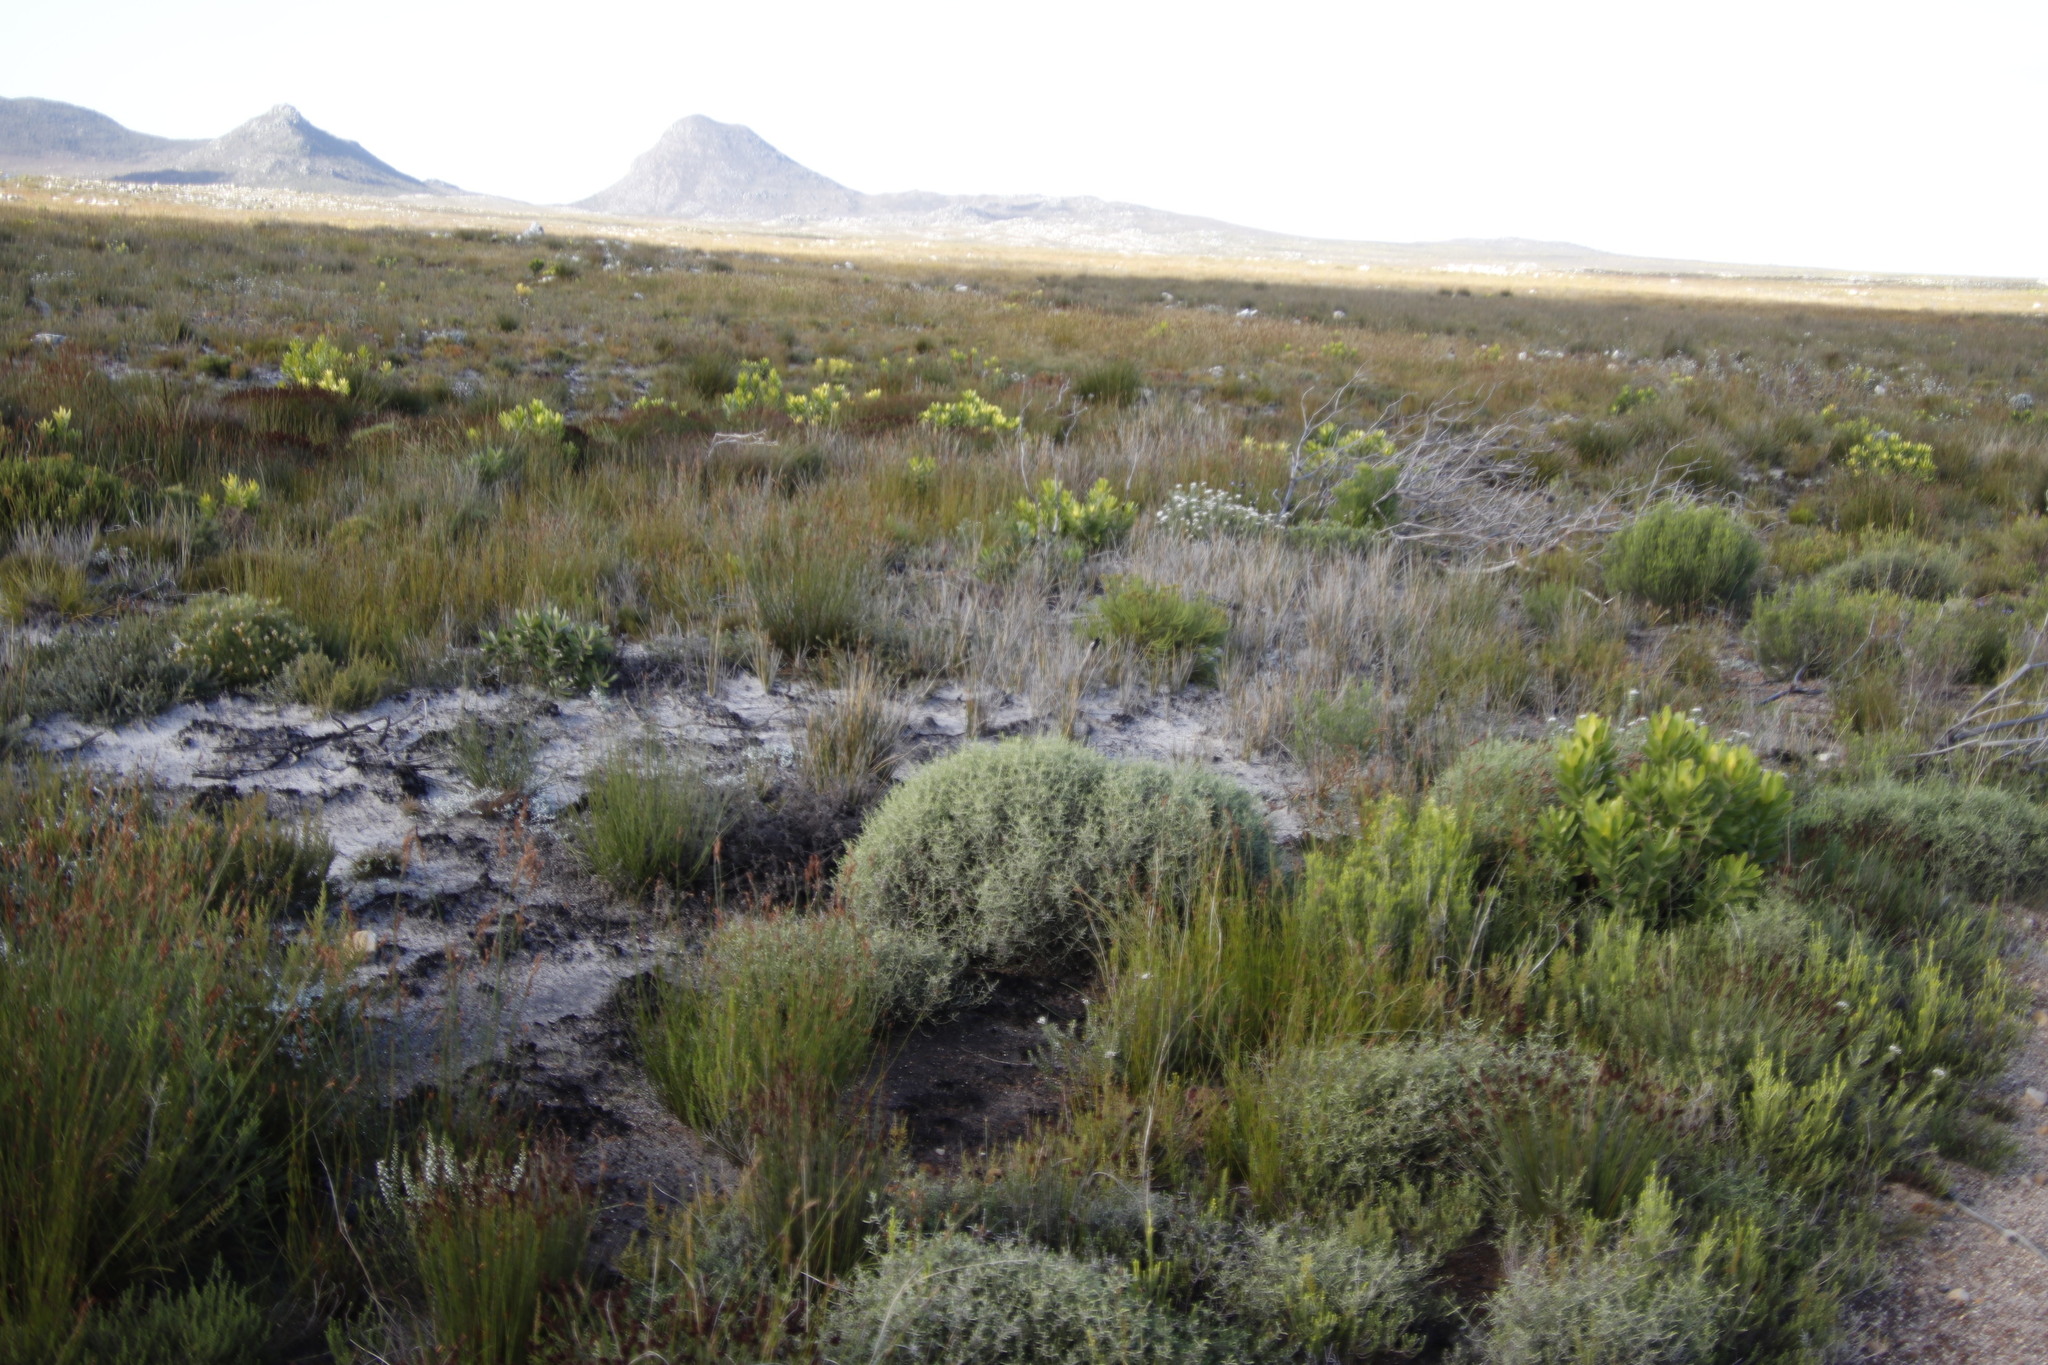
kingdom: Plantae
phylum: Tracheophyta
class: Magnoliopsida
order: Asterales
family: Asteraceae
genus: Myrovernix
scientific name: Myrovernix scaber
